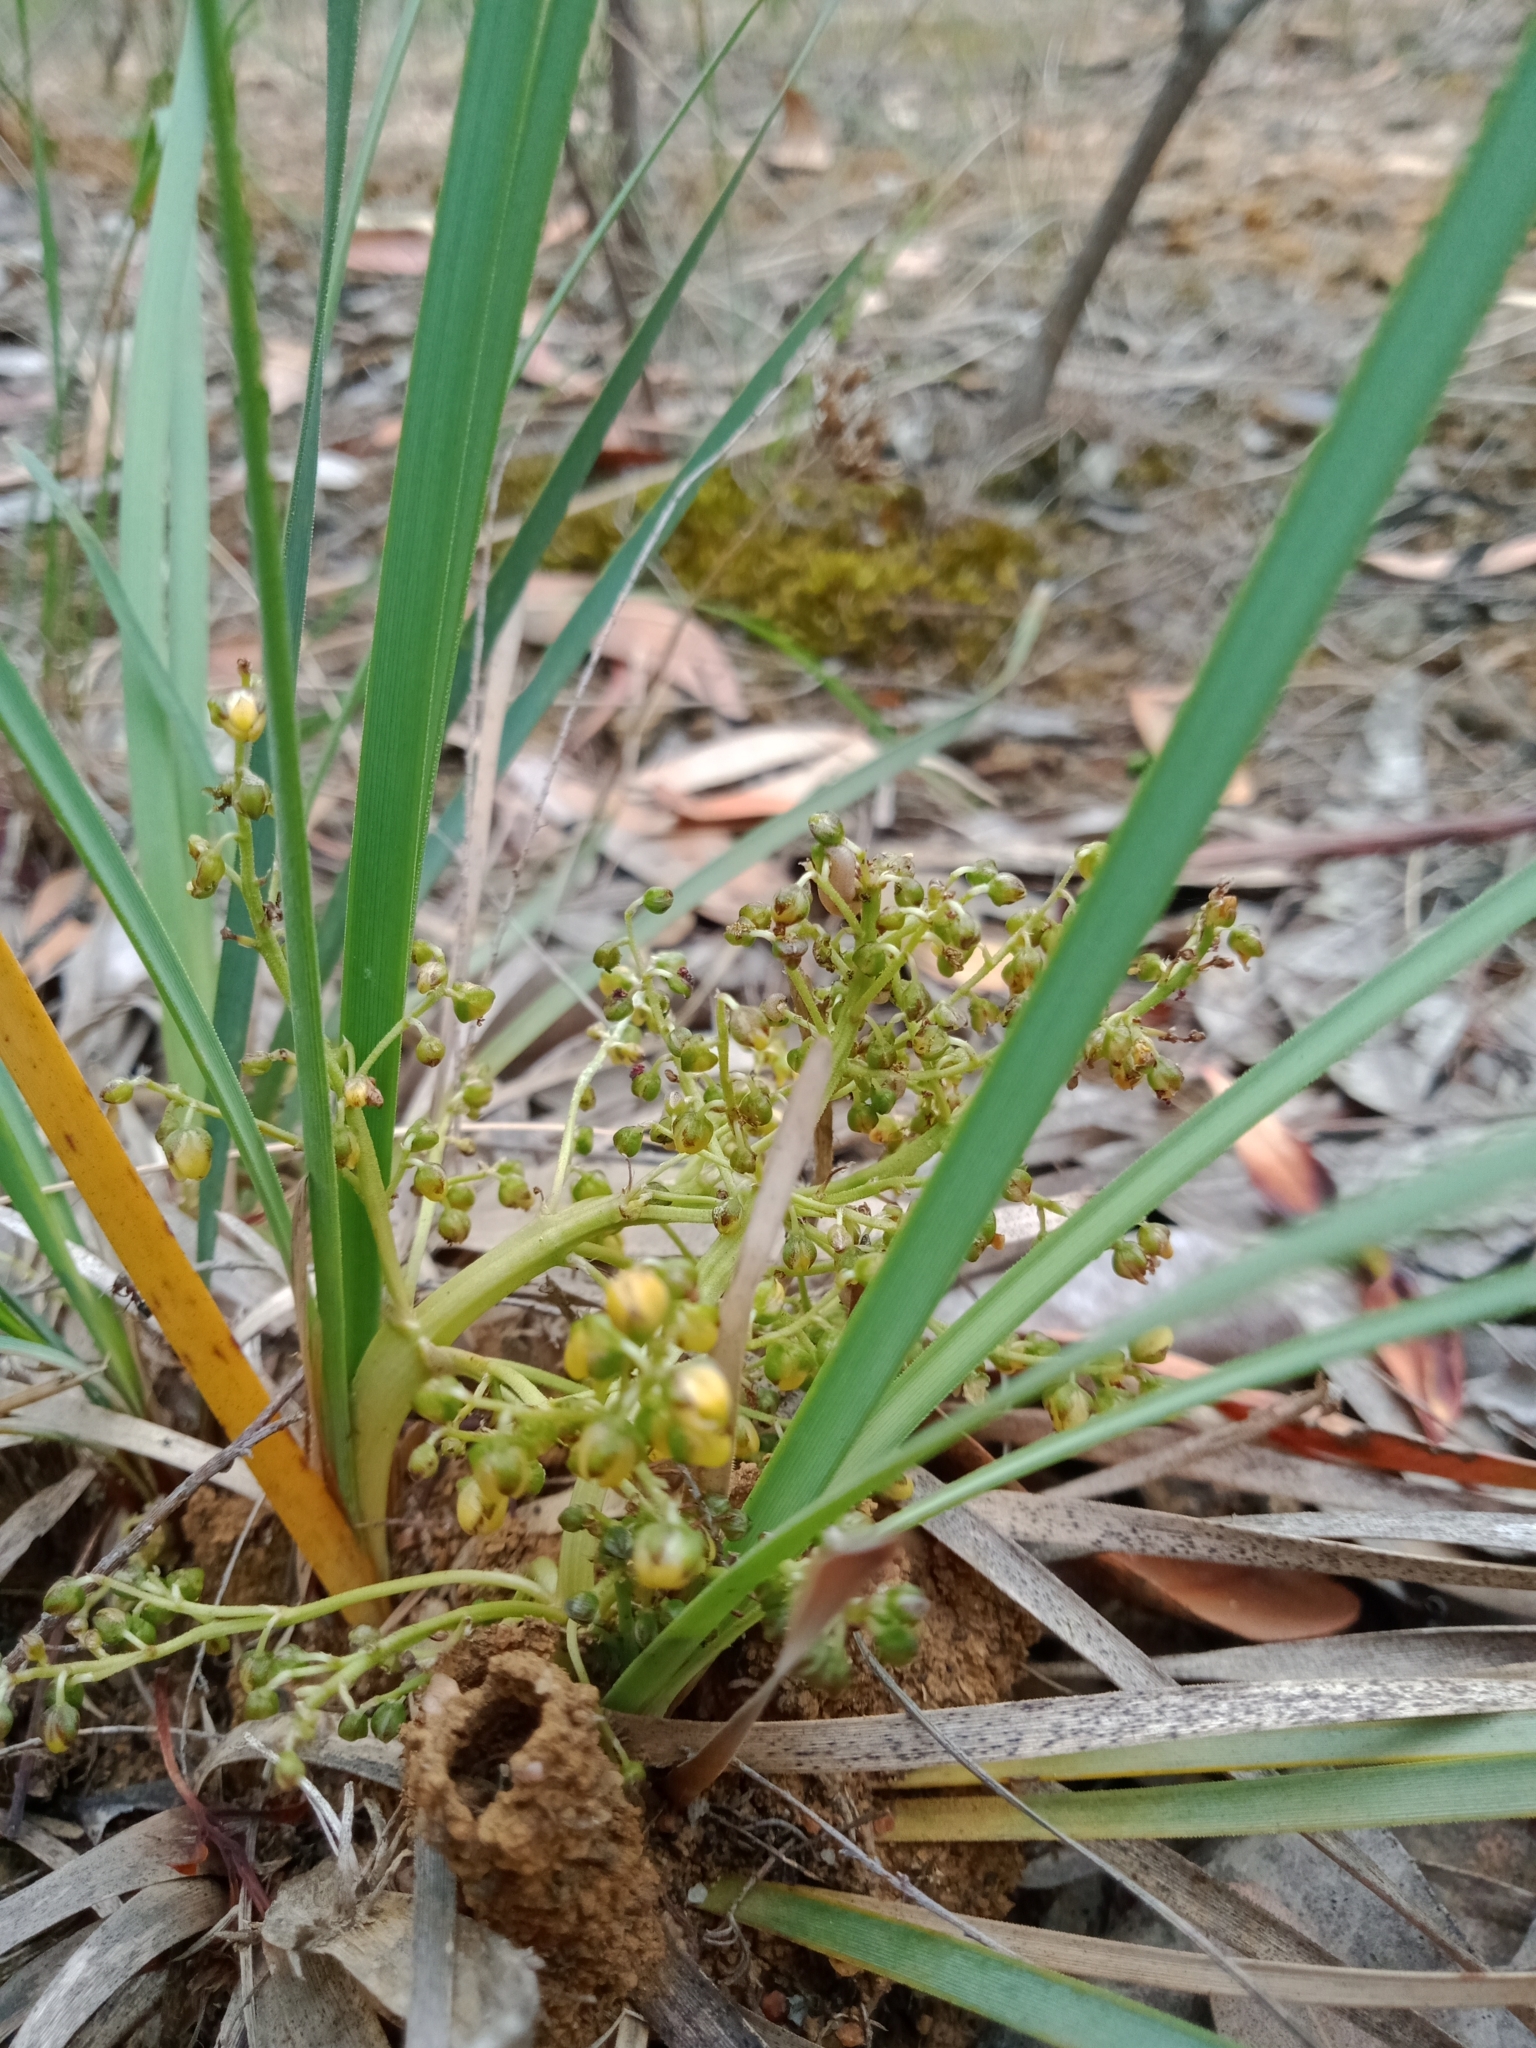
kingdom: Plantae
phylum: Tracheophyta
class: Liliopsida
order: Asparagales
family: Asparagaceae
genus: Lomandra
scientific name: Lomandra filiformis
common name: Wattle mat-rush
